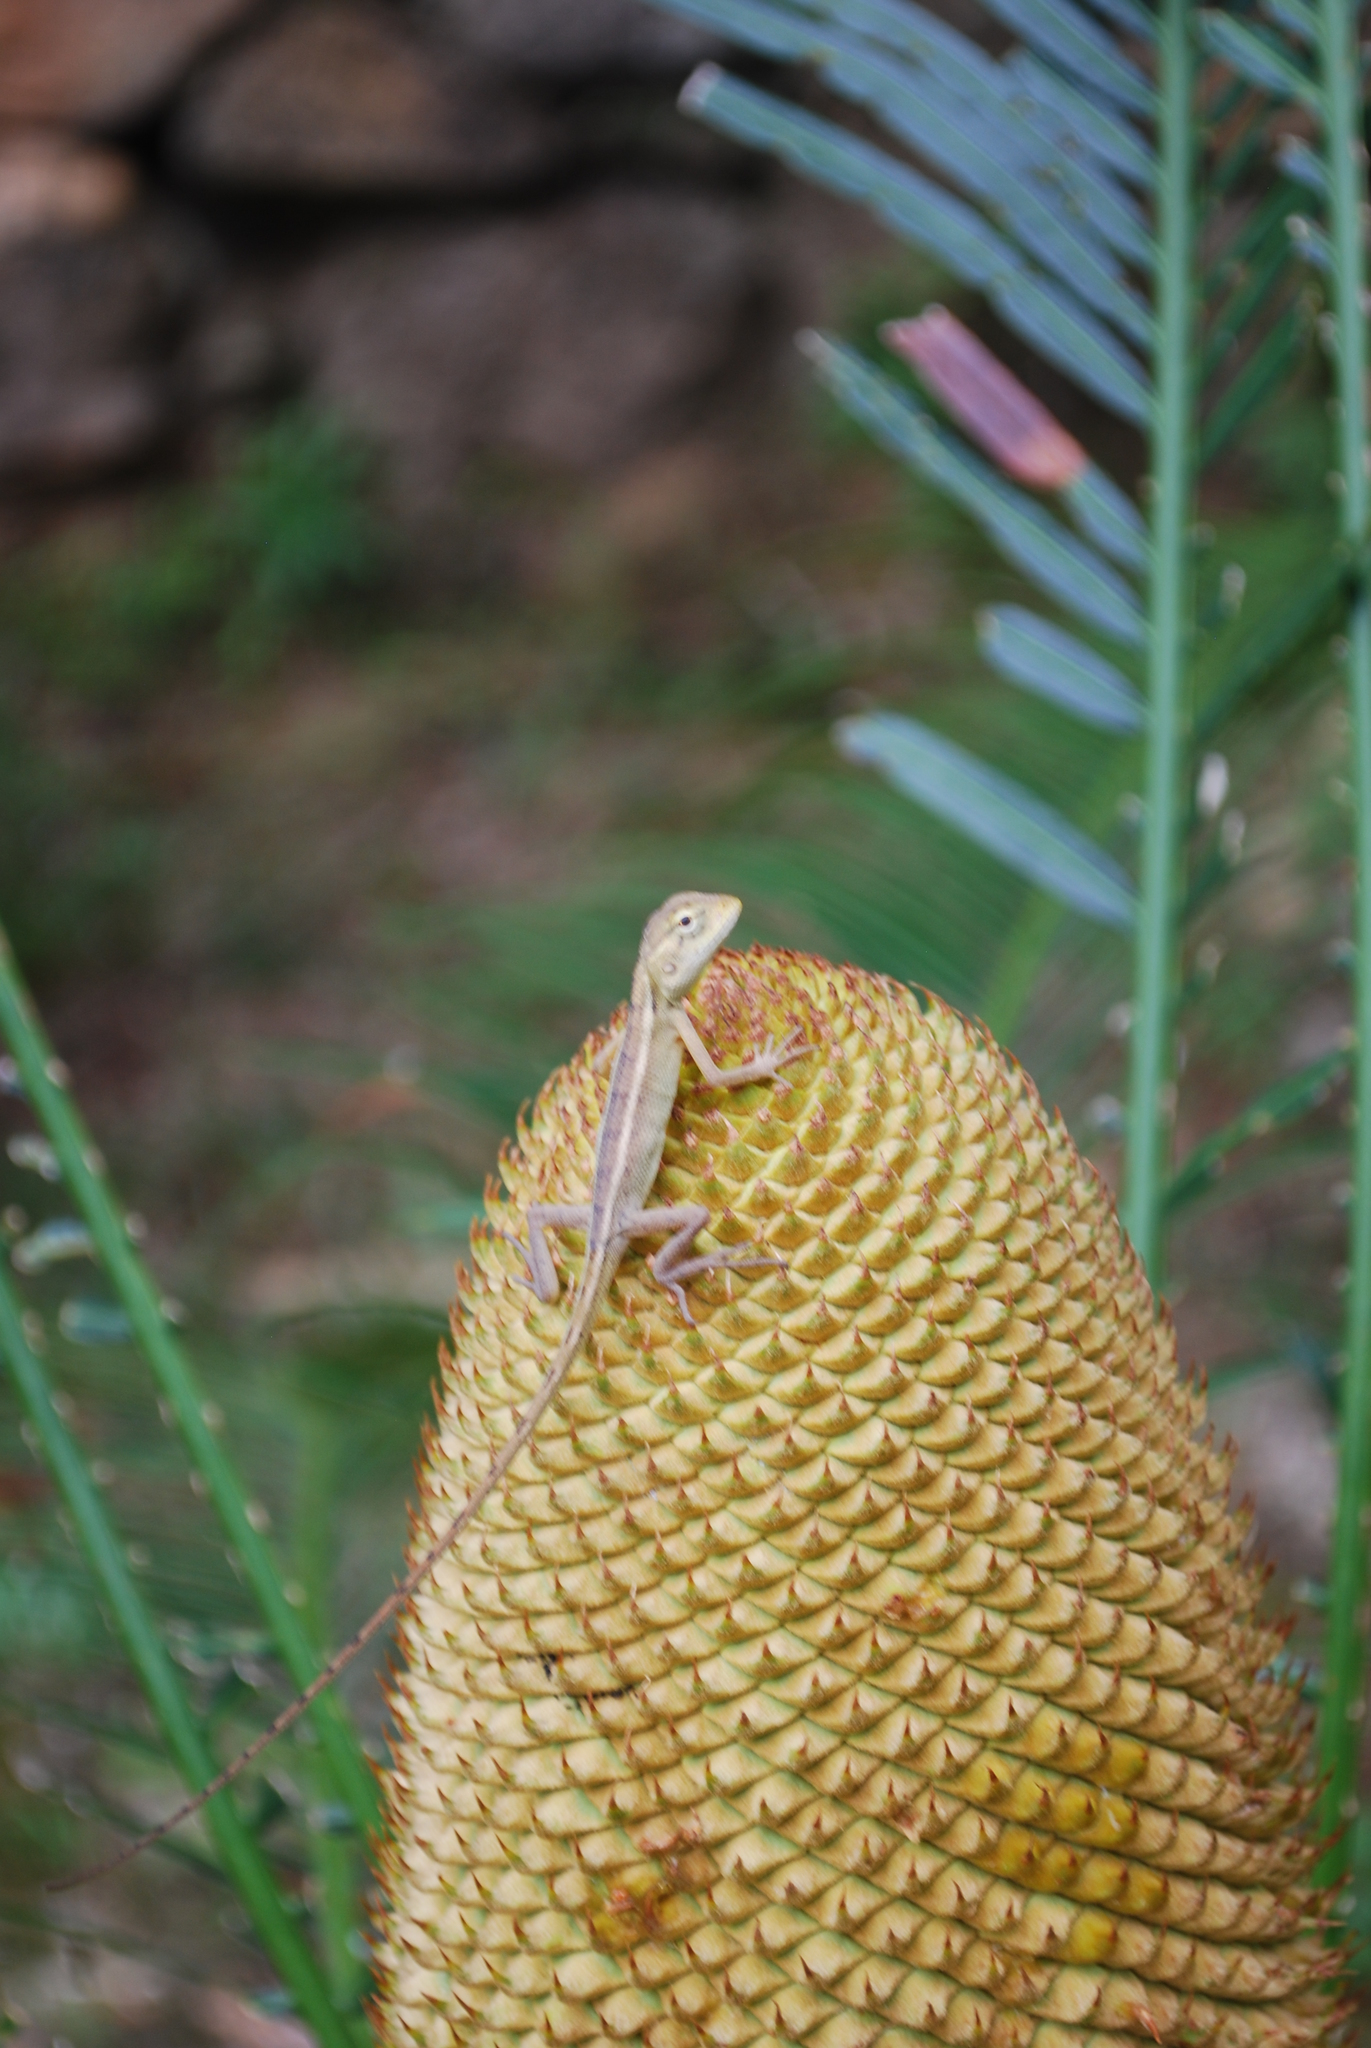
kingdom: Animalia
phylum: Chordata
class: Squamata
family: Agamidae
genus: Calotes
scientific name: Calotes versicolor
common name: Oriental garden lizard
